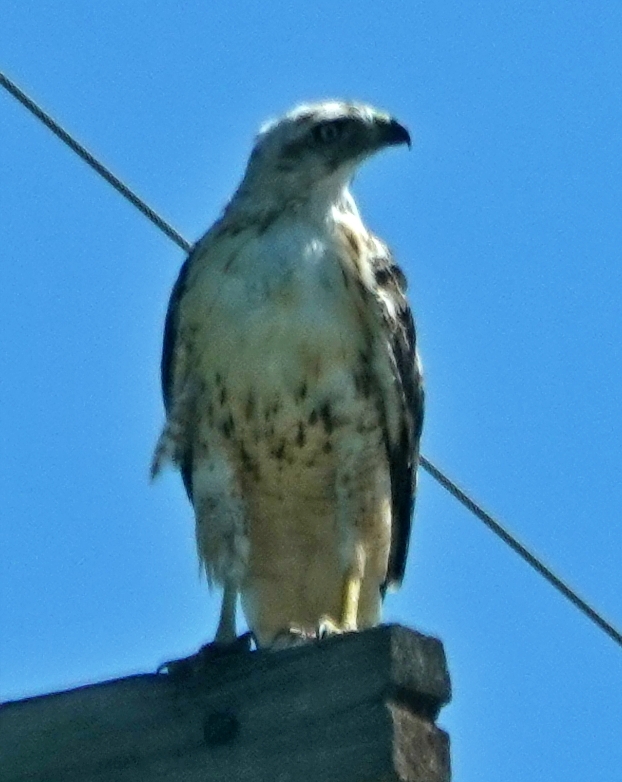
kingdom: Animalia
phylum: Chordata
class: Aves
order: Accipitriformes
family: Accipitridae
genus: Buteo
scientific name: Buteo jamaicensis
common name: Red-tailed hawk
